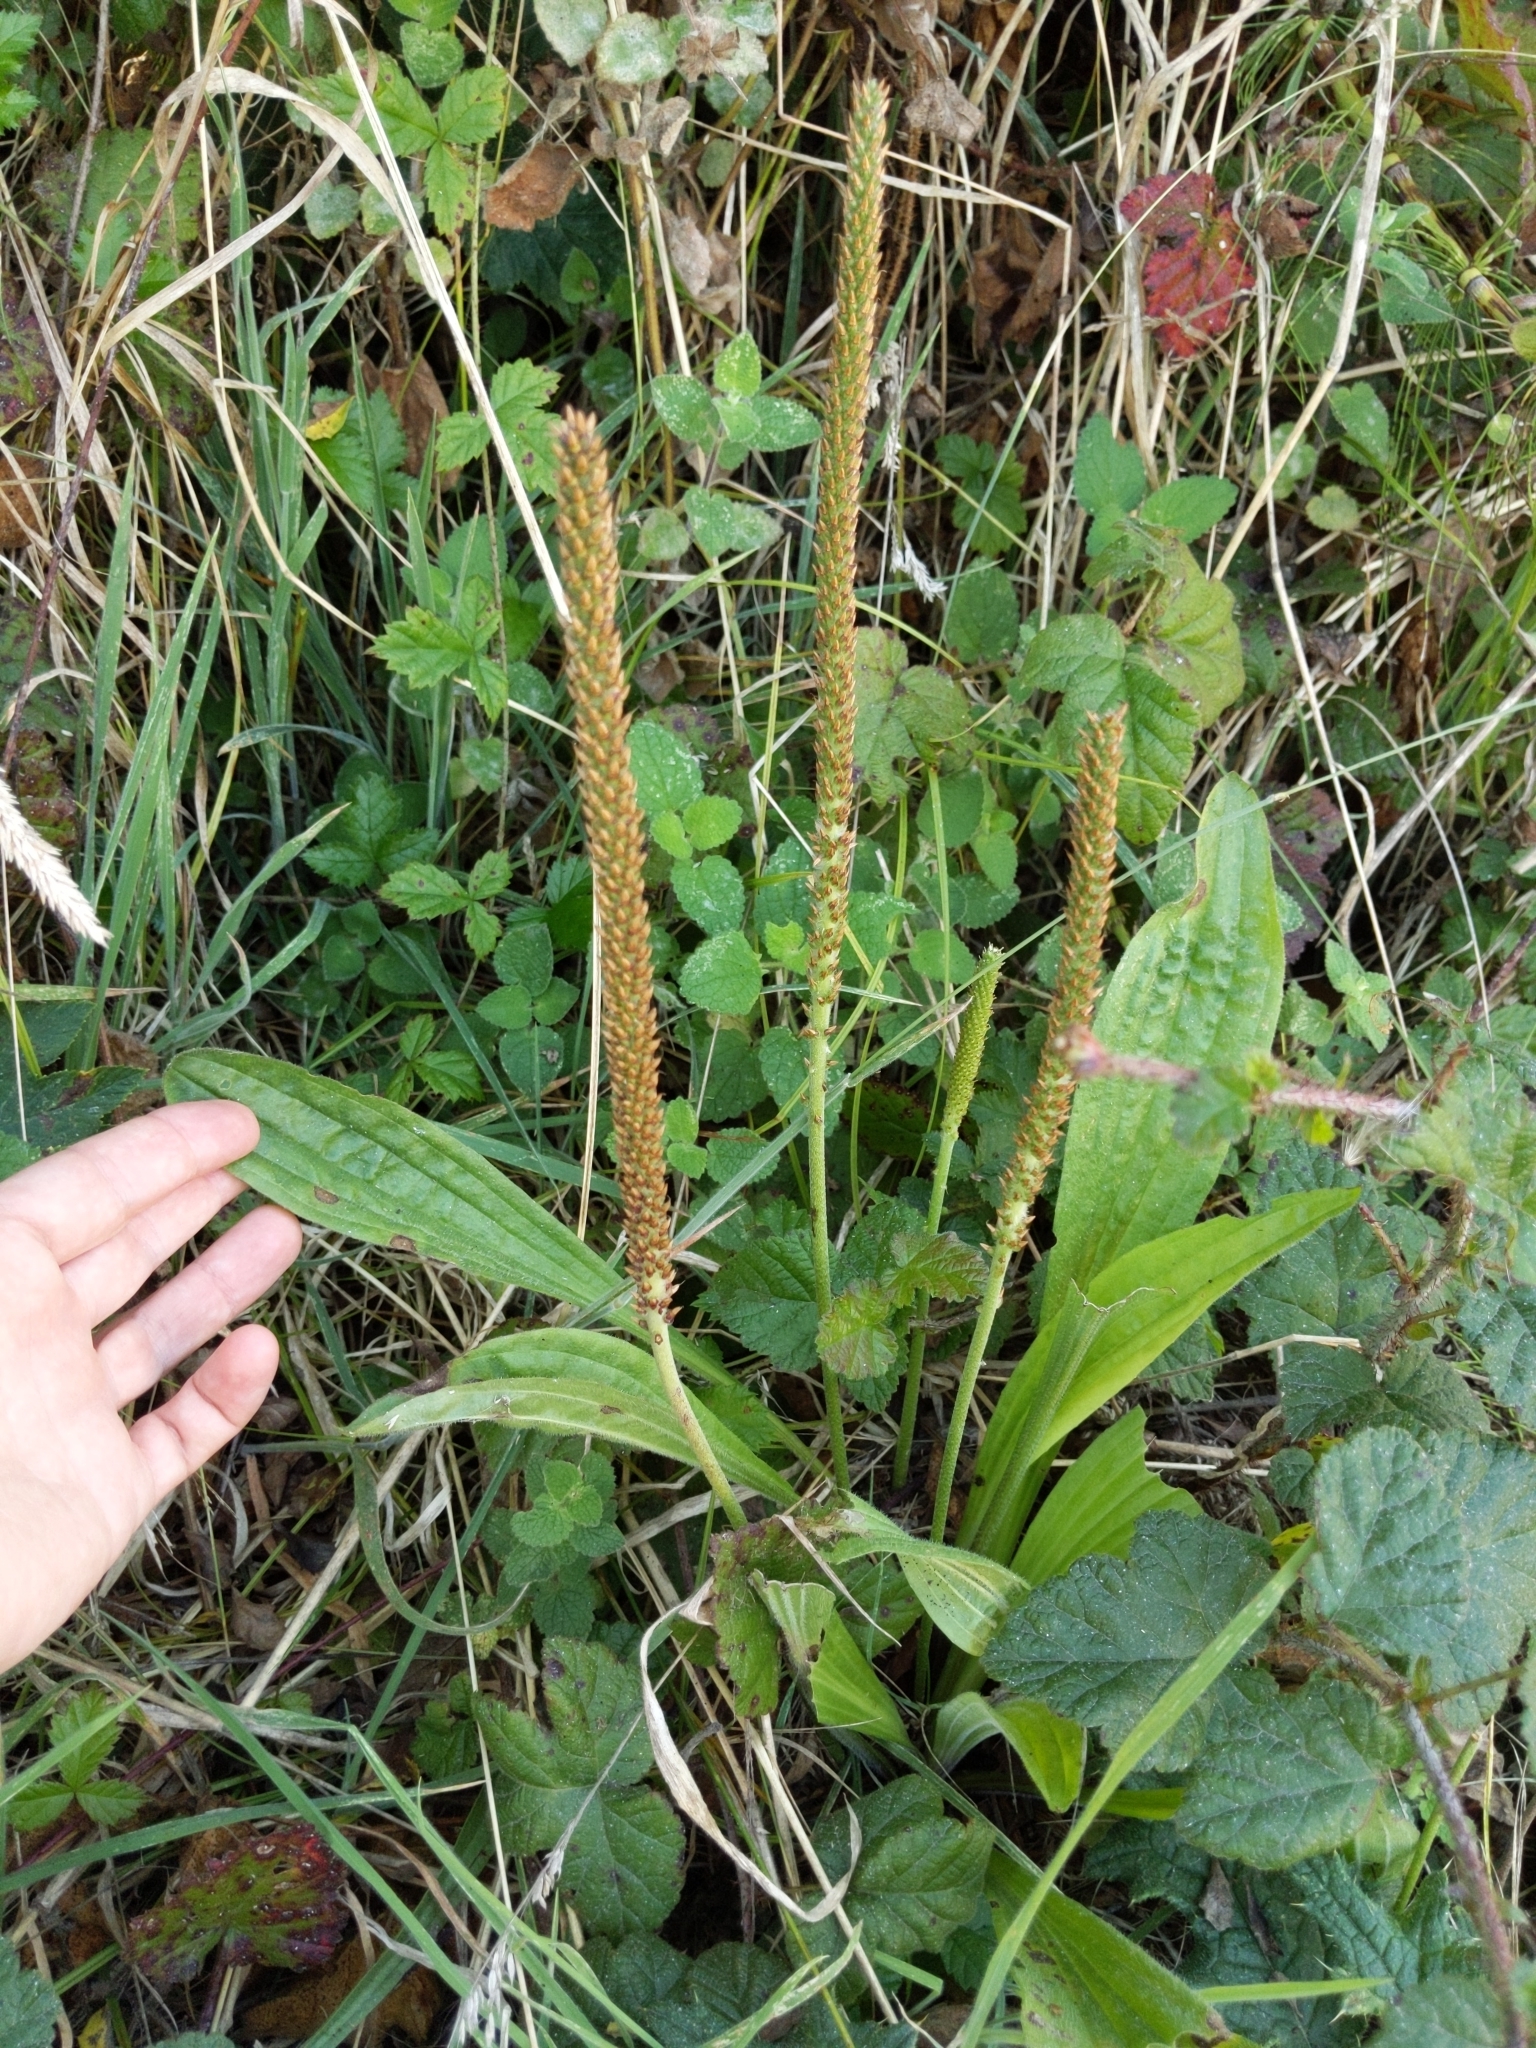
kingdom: Plantae
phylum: Tracheophyta
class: Magnoliopsida
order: Lamiales
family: Plantaginaceae
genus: Plantago
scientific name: Plantago subnuda
